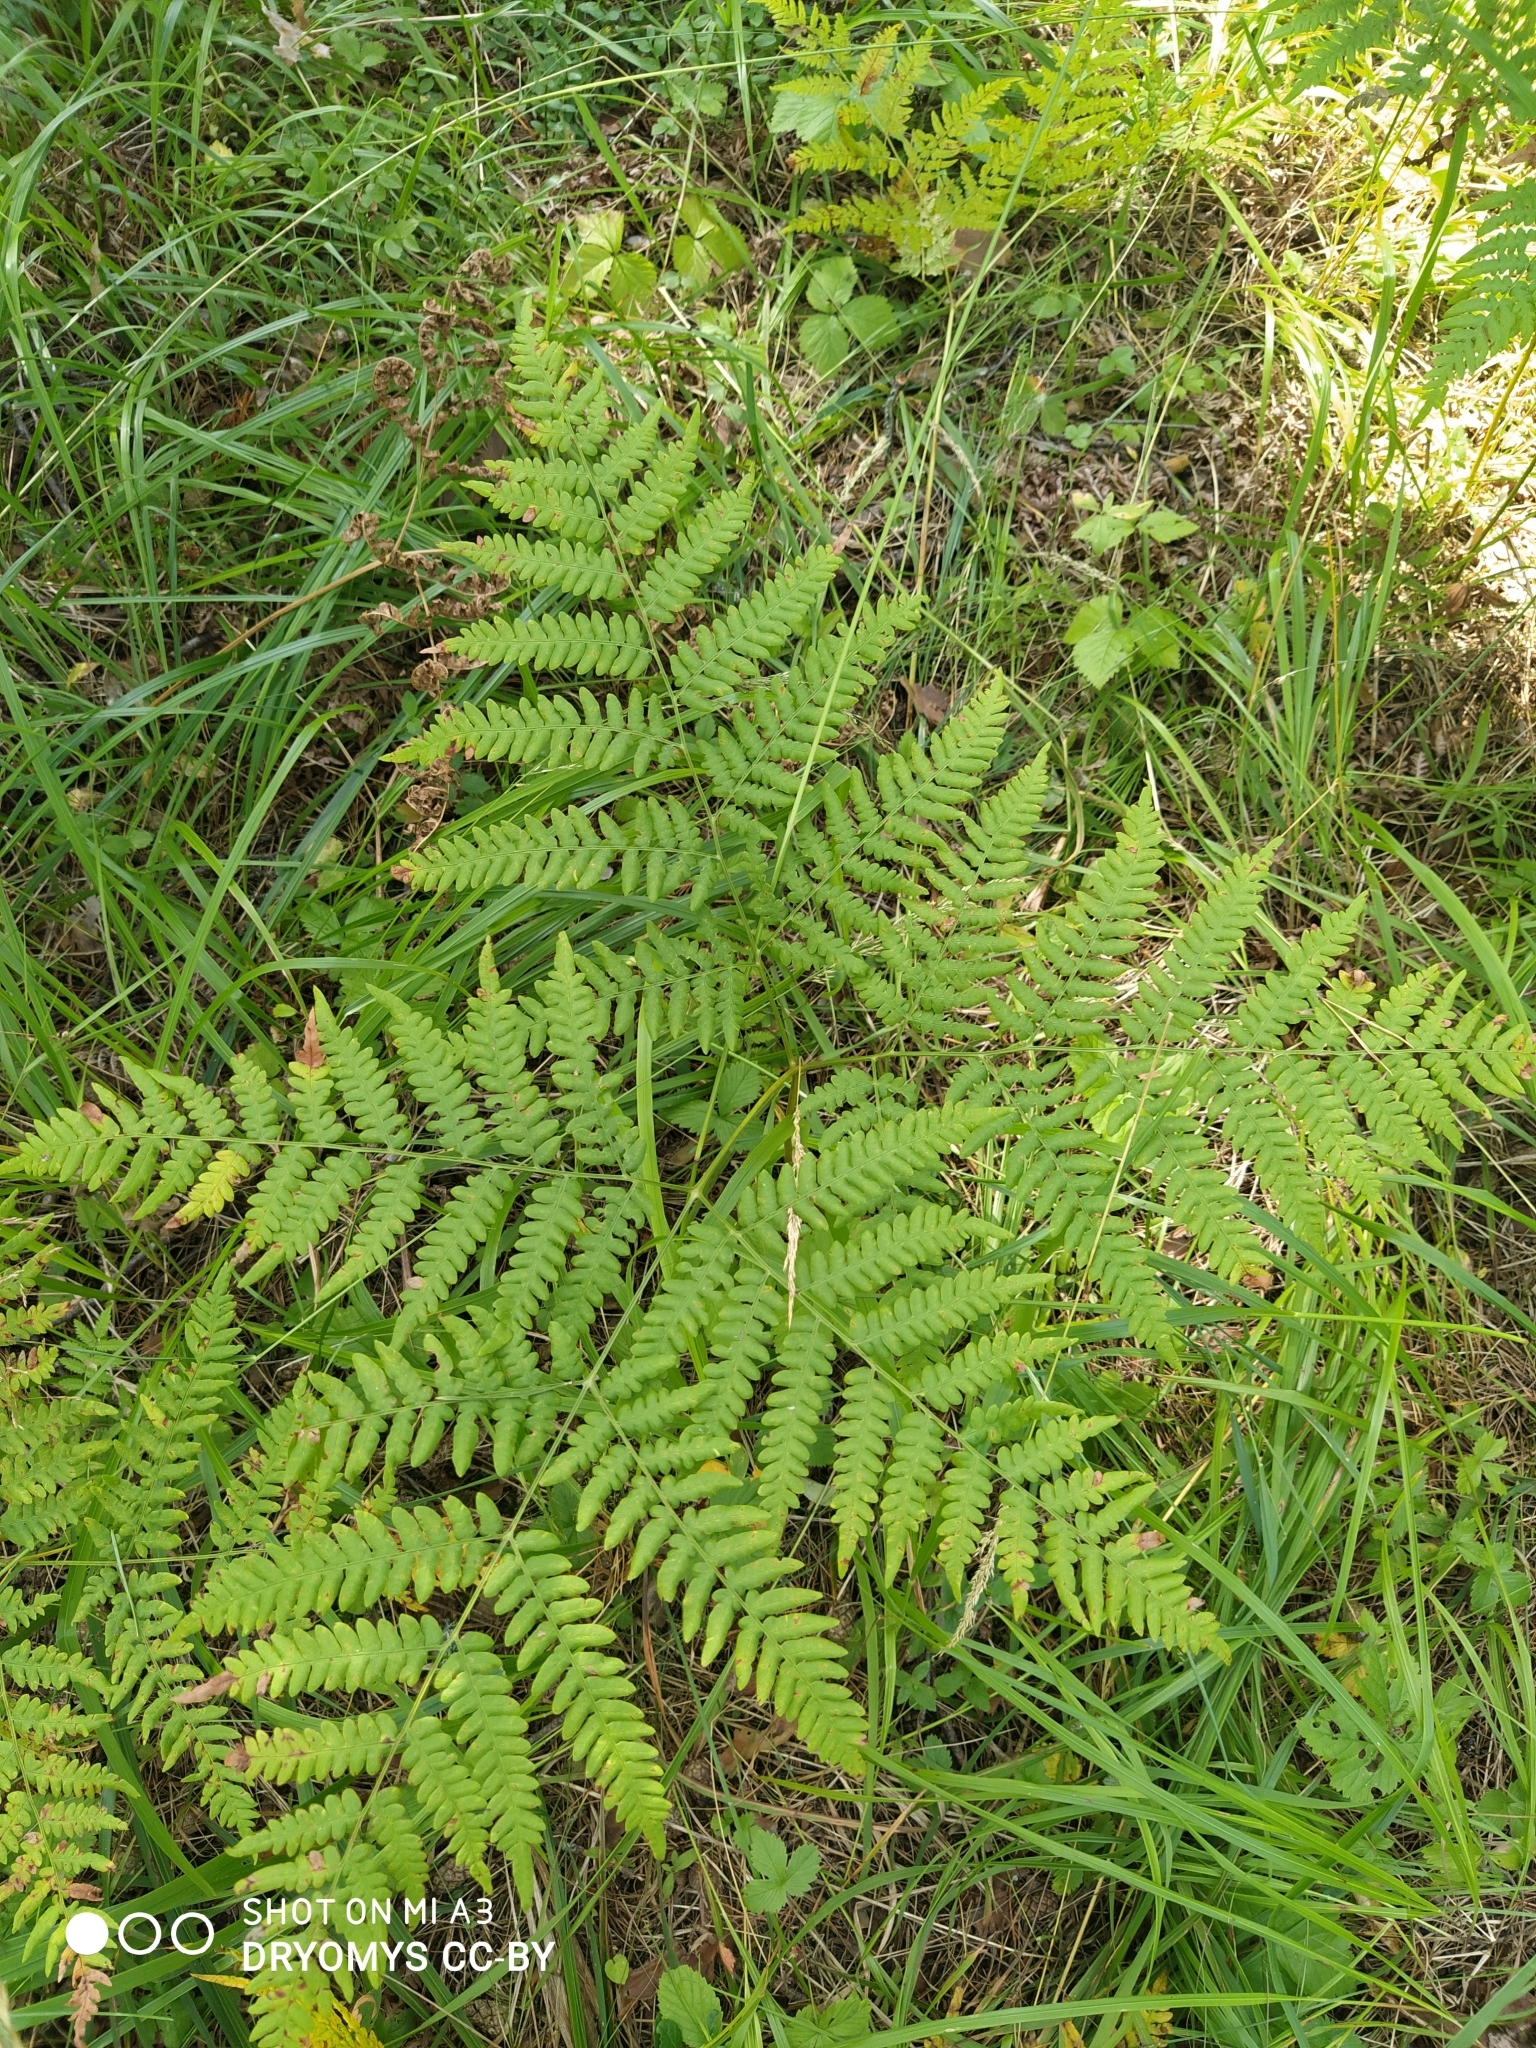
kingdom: Plantae
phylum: Tracheophyta
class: Polypodiopsida
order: Polypodiales
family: Dennstaedtiaceae
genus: Pteridium
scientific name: Pteridium aquilinum
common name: Bracken
